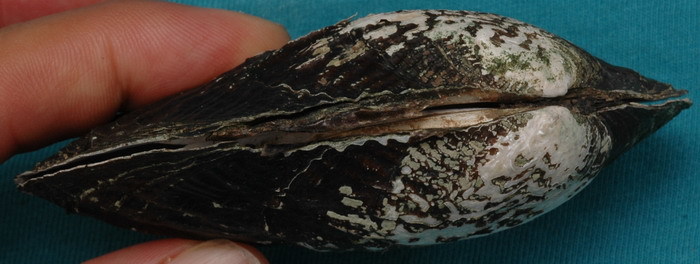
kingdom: Animalia
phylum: Mollusca
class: Bivalvia
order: Unionida
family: Unionidae
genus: Megalonaias
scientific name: Megalonaias nervosa
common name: Washboard
